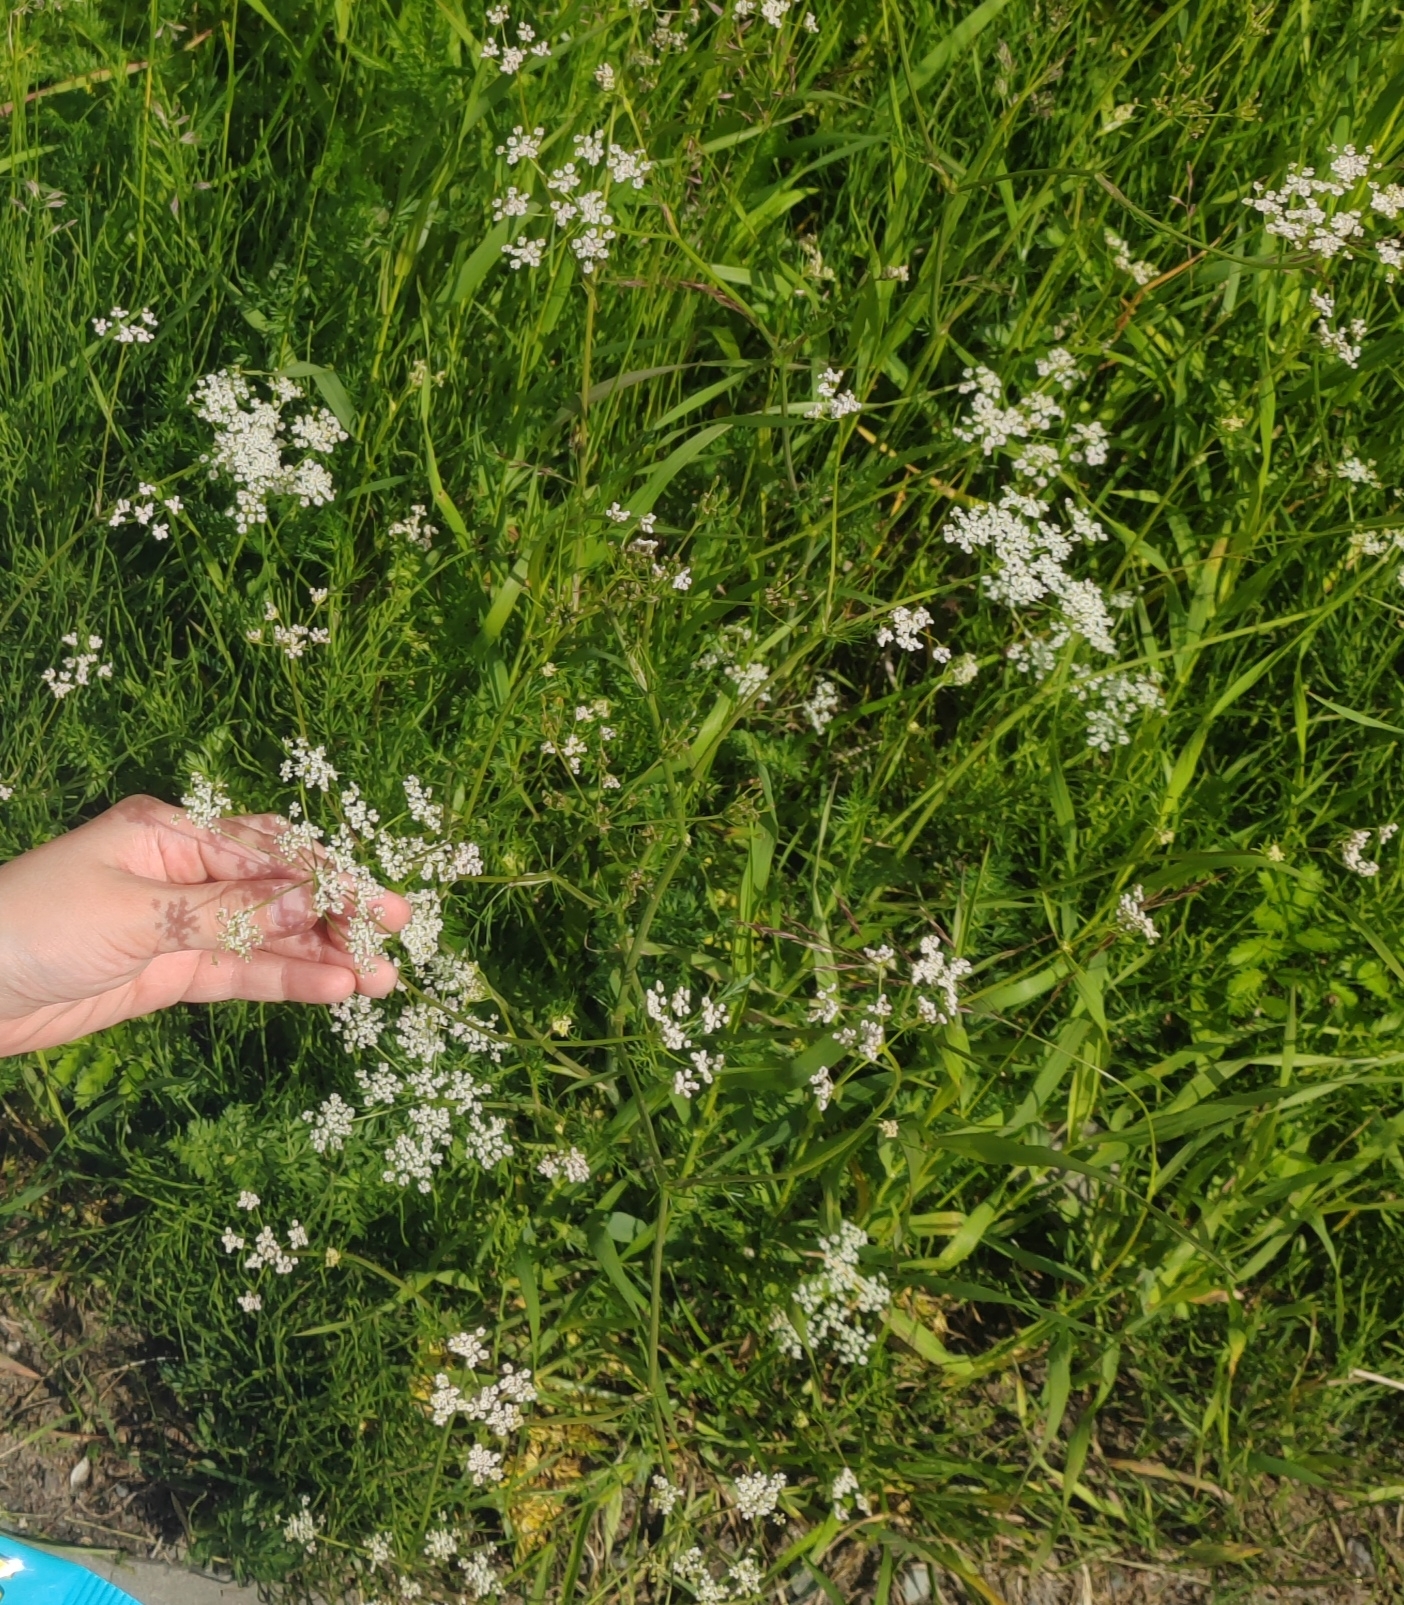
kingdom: Plantae
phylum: Tracheophyta
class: Magnoliopsida
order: Apiales
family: Apiaceae
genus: Carum
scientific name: Carum carvi
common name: Caraway
